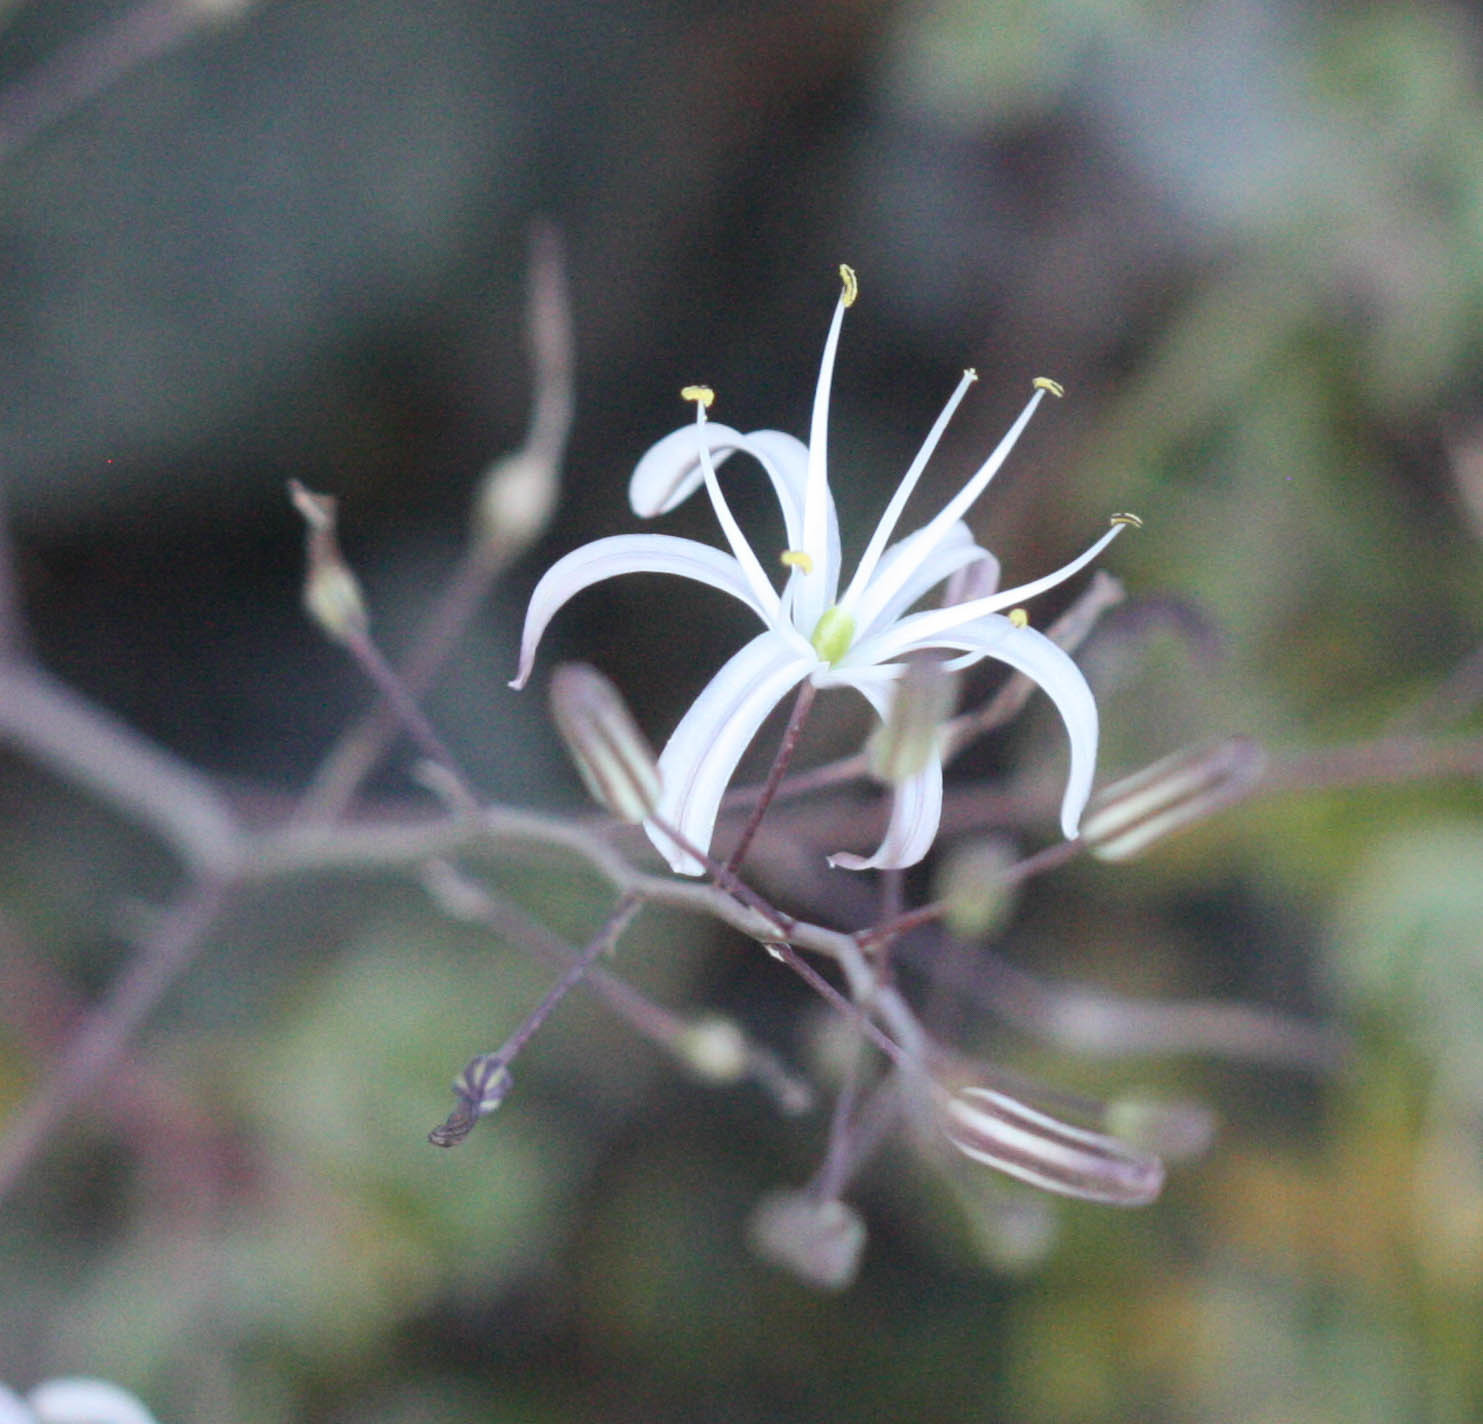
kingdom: Plantae
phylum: Tracheophyta
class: Liliopsida
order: Asparagales
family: Asparagaceae
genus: Chlorogalum
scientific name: Chlorogalum pomeridianum
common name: Amole
